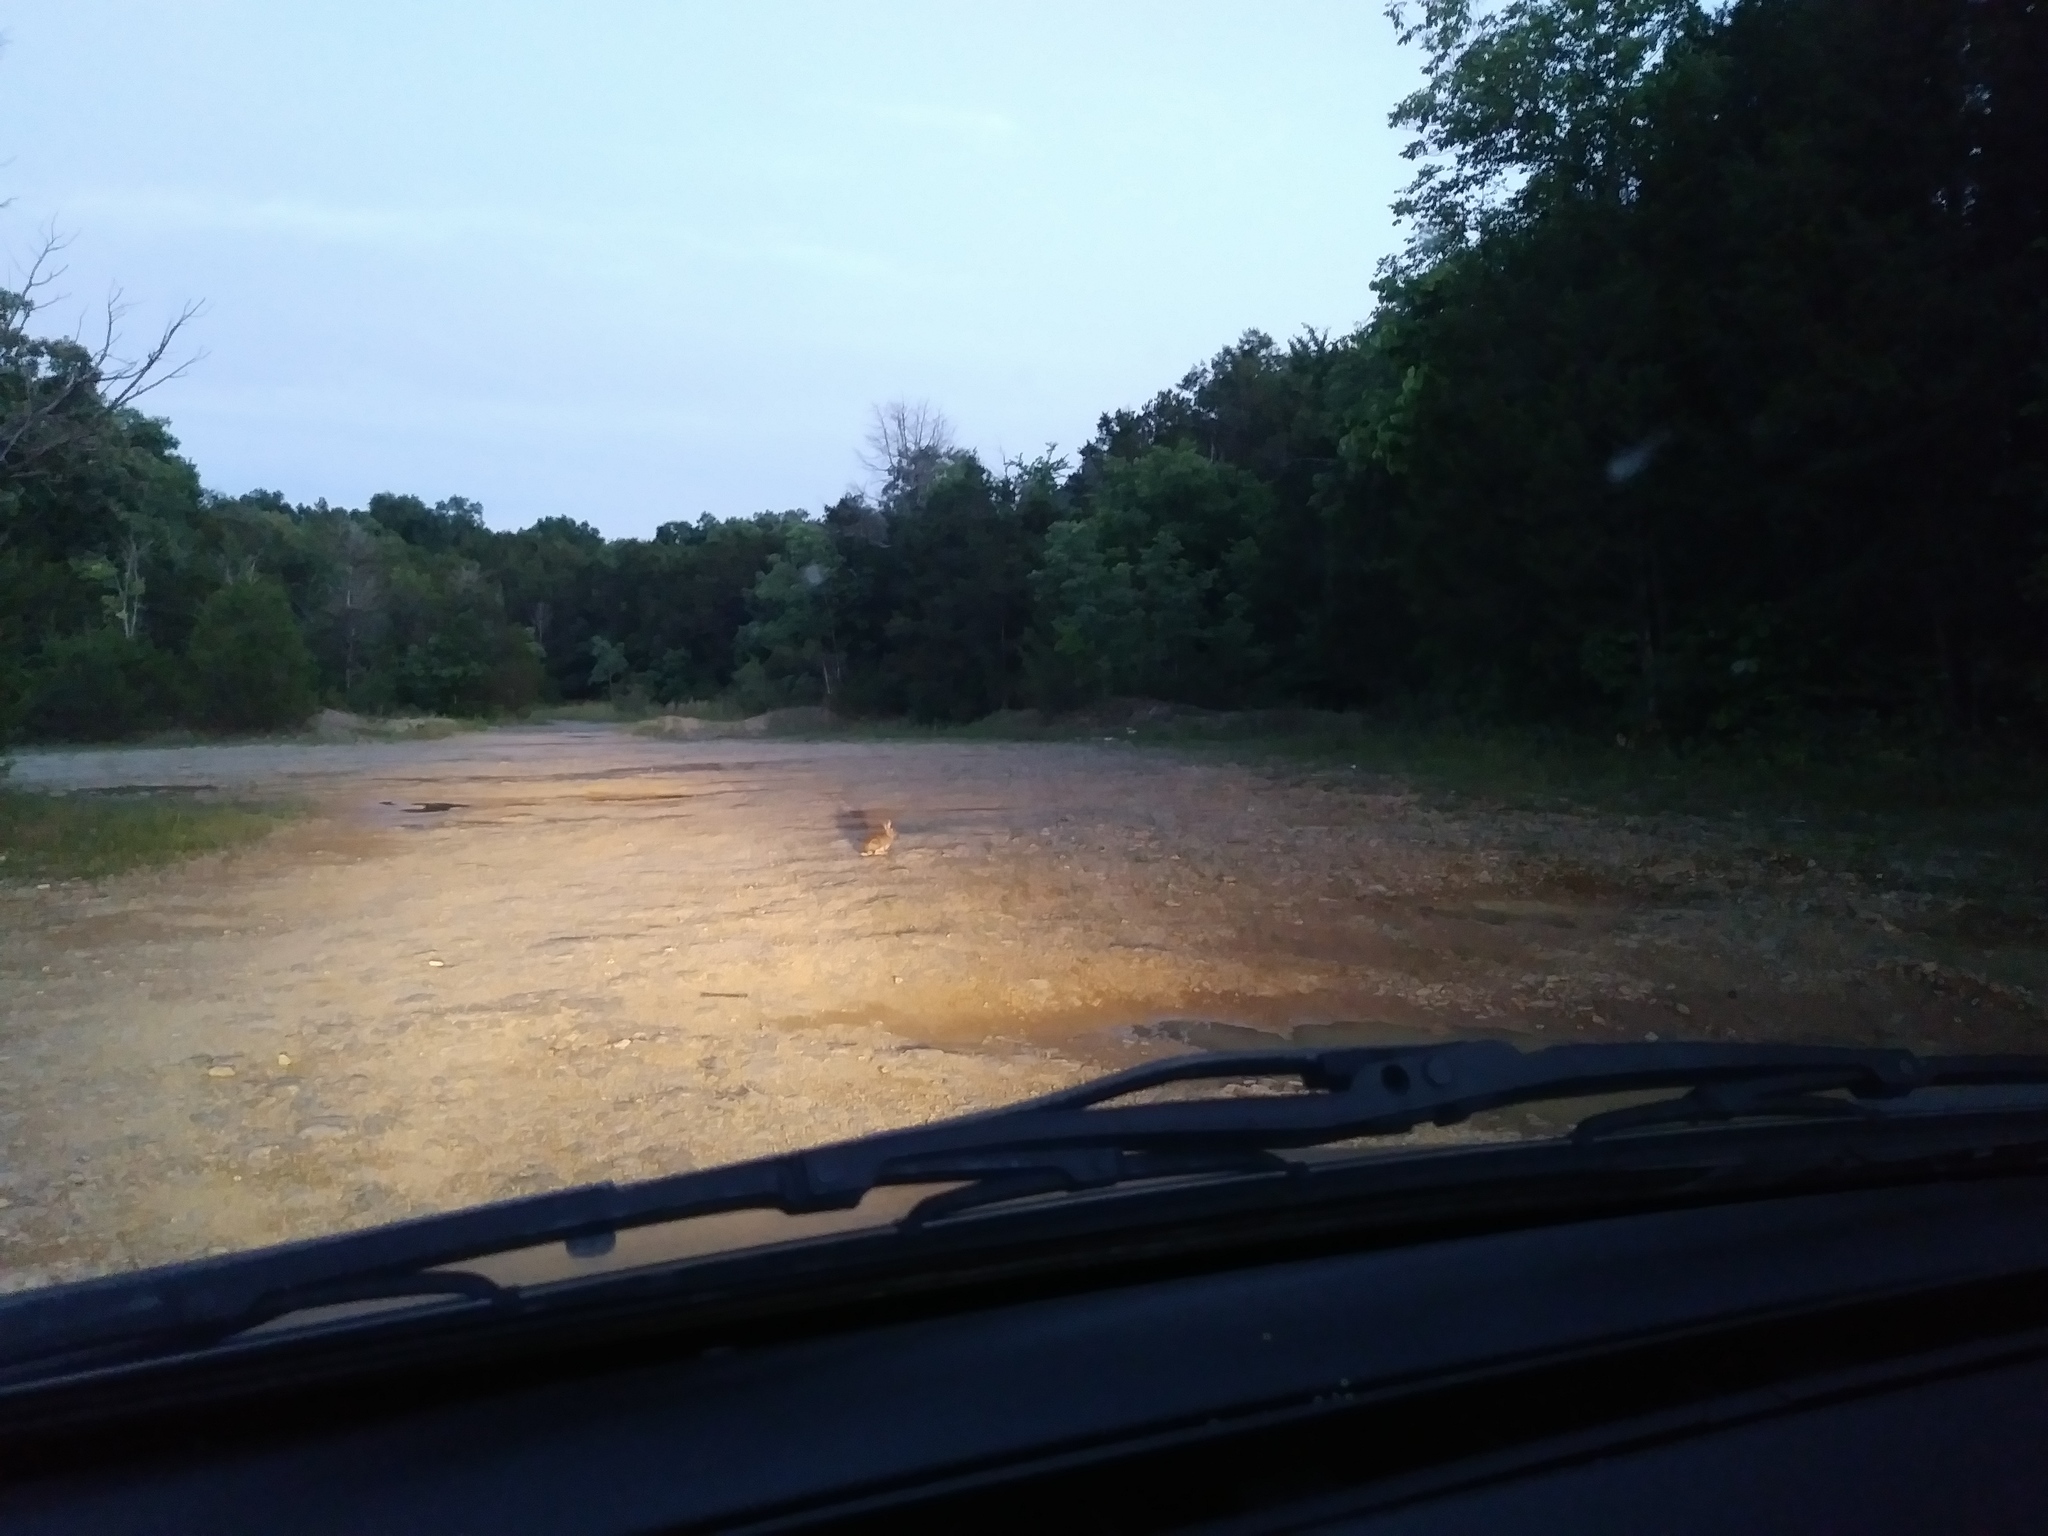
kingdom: Animalia
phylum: Chordata
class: Mammalia
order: Lagomorpha
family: Leporidae
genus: Sylvilagus
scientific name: Sylvilagus floridanus
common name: Eastern cottontail
